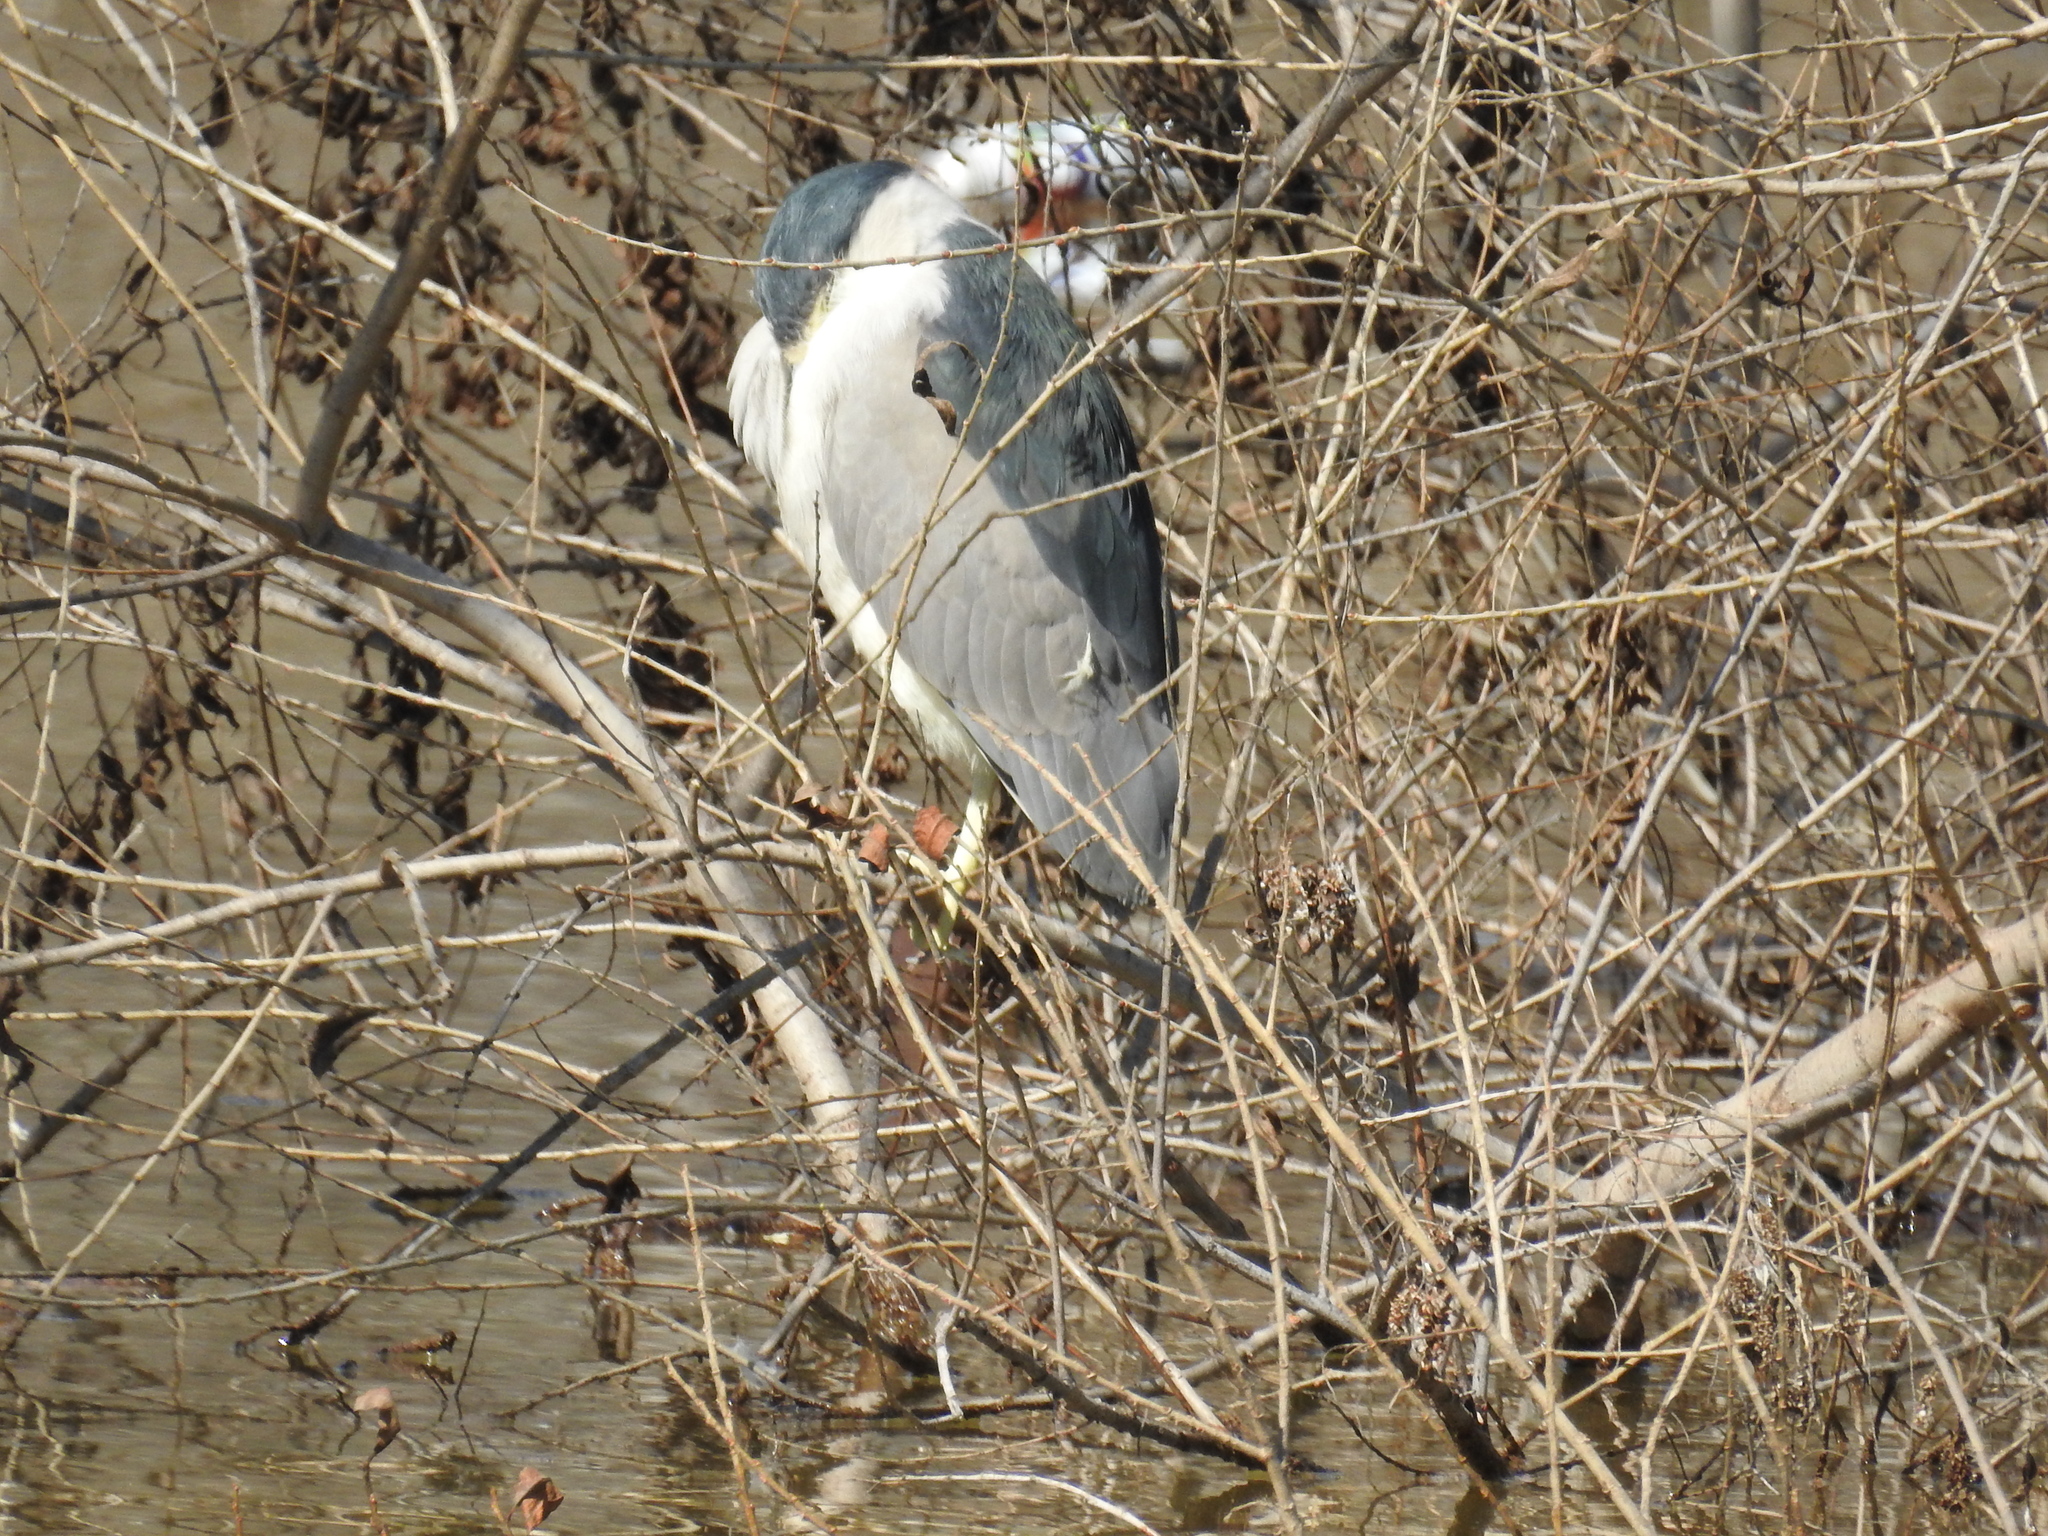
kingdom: Animalia
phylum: Chordata
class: Aves
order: Pelecaniformes
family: Ardeidae
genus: Nycticorax
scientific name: Nycticorax nycticorax
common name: Black-crowned night heron
